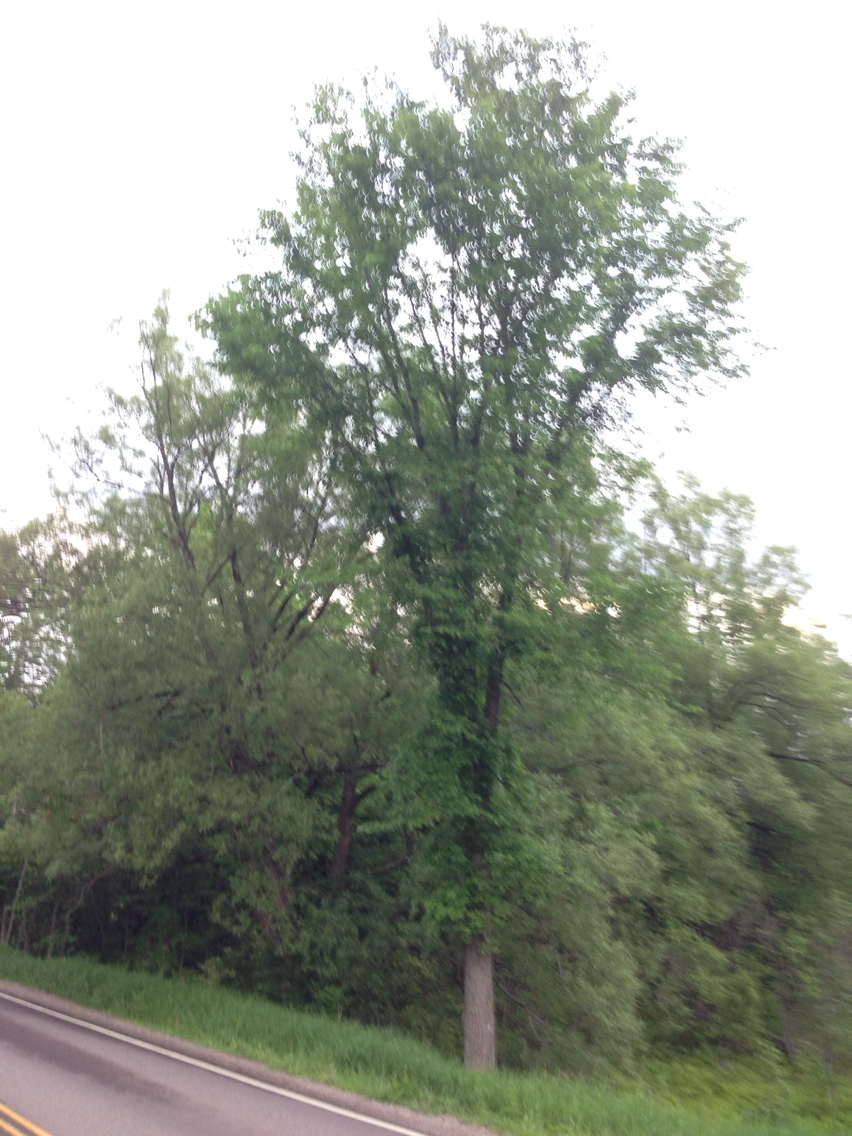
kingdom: Plantae
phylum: Tracheophyta
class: Magnoliopsida
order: Rosales
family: Ulmaceae
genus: Ulmus
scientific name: Ulmus americana
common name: American elm
